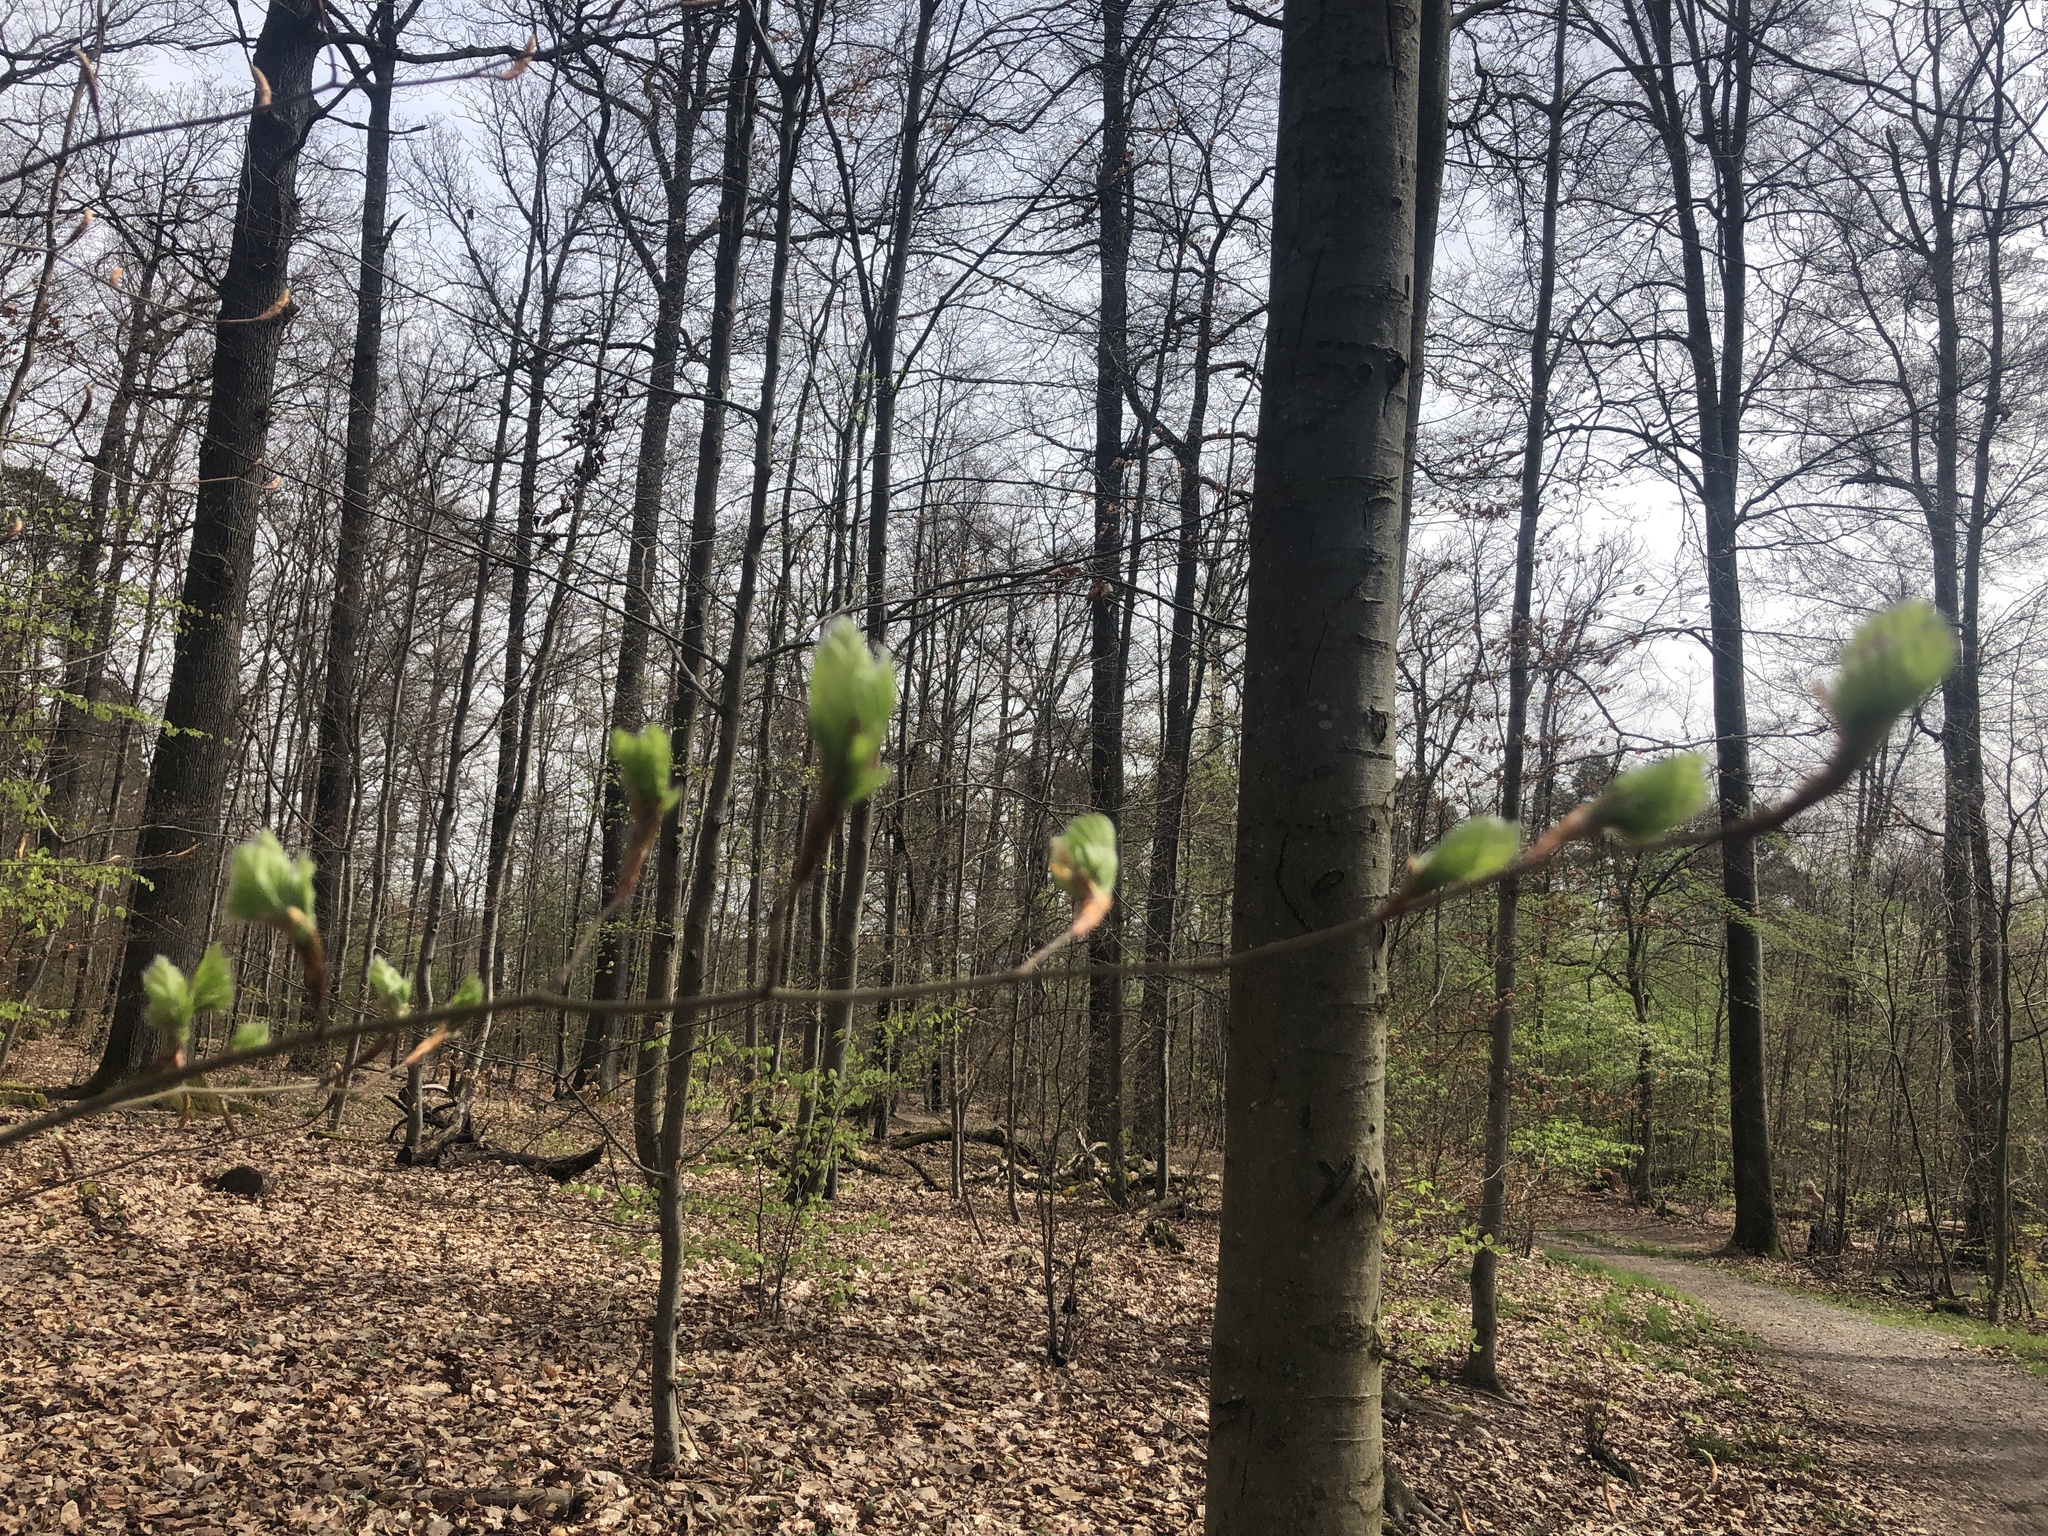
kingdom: Plantae
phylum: Tracheophyta
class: Magnoliopsida
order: Fagales
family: Fagaceae
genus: Fagus
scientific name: Fagus sylvatica
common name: Beech
